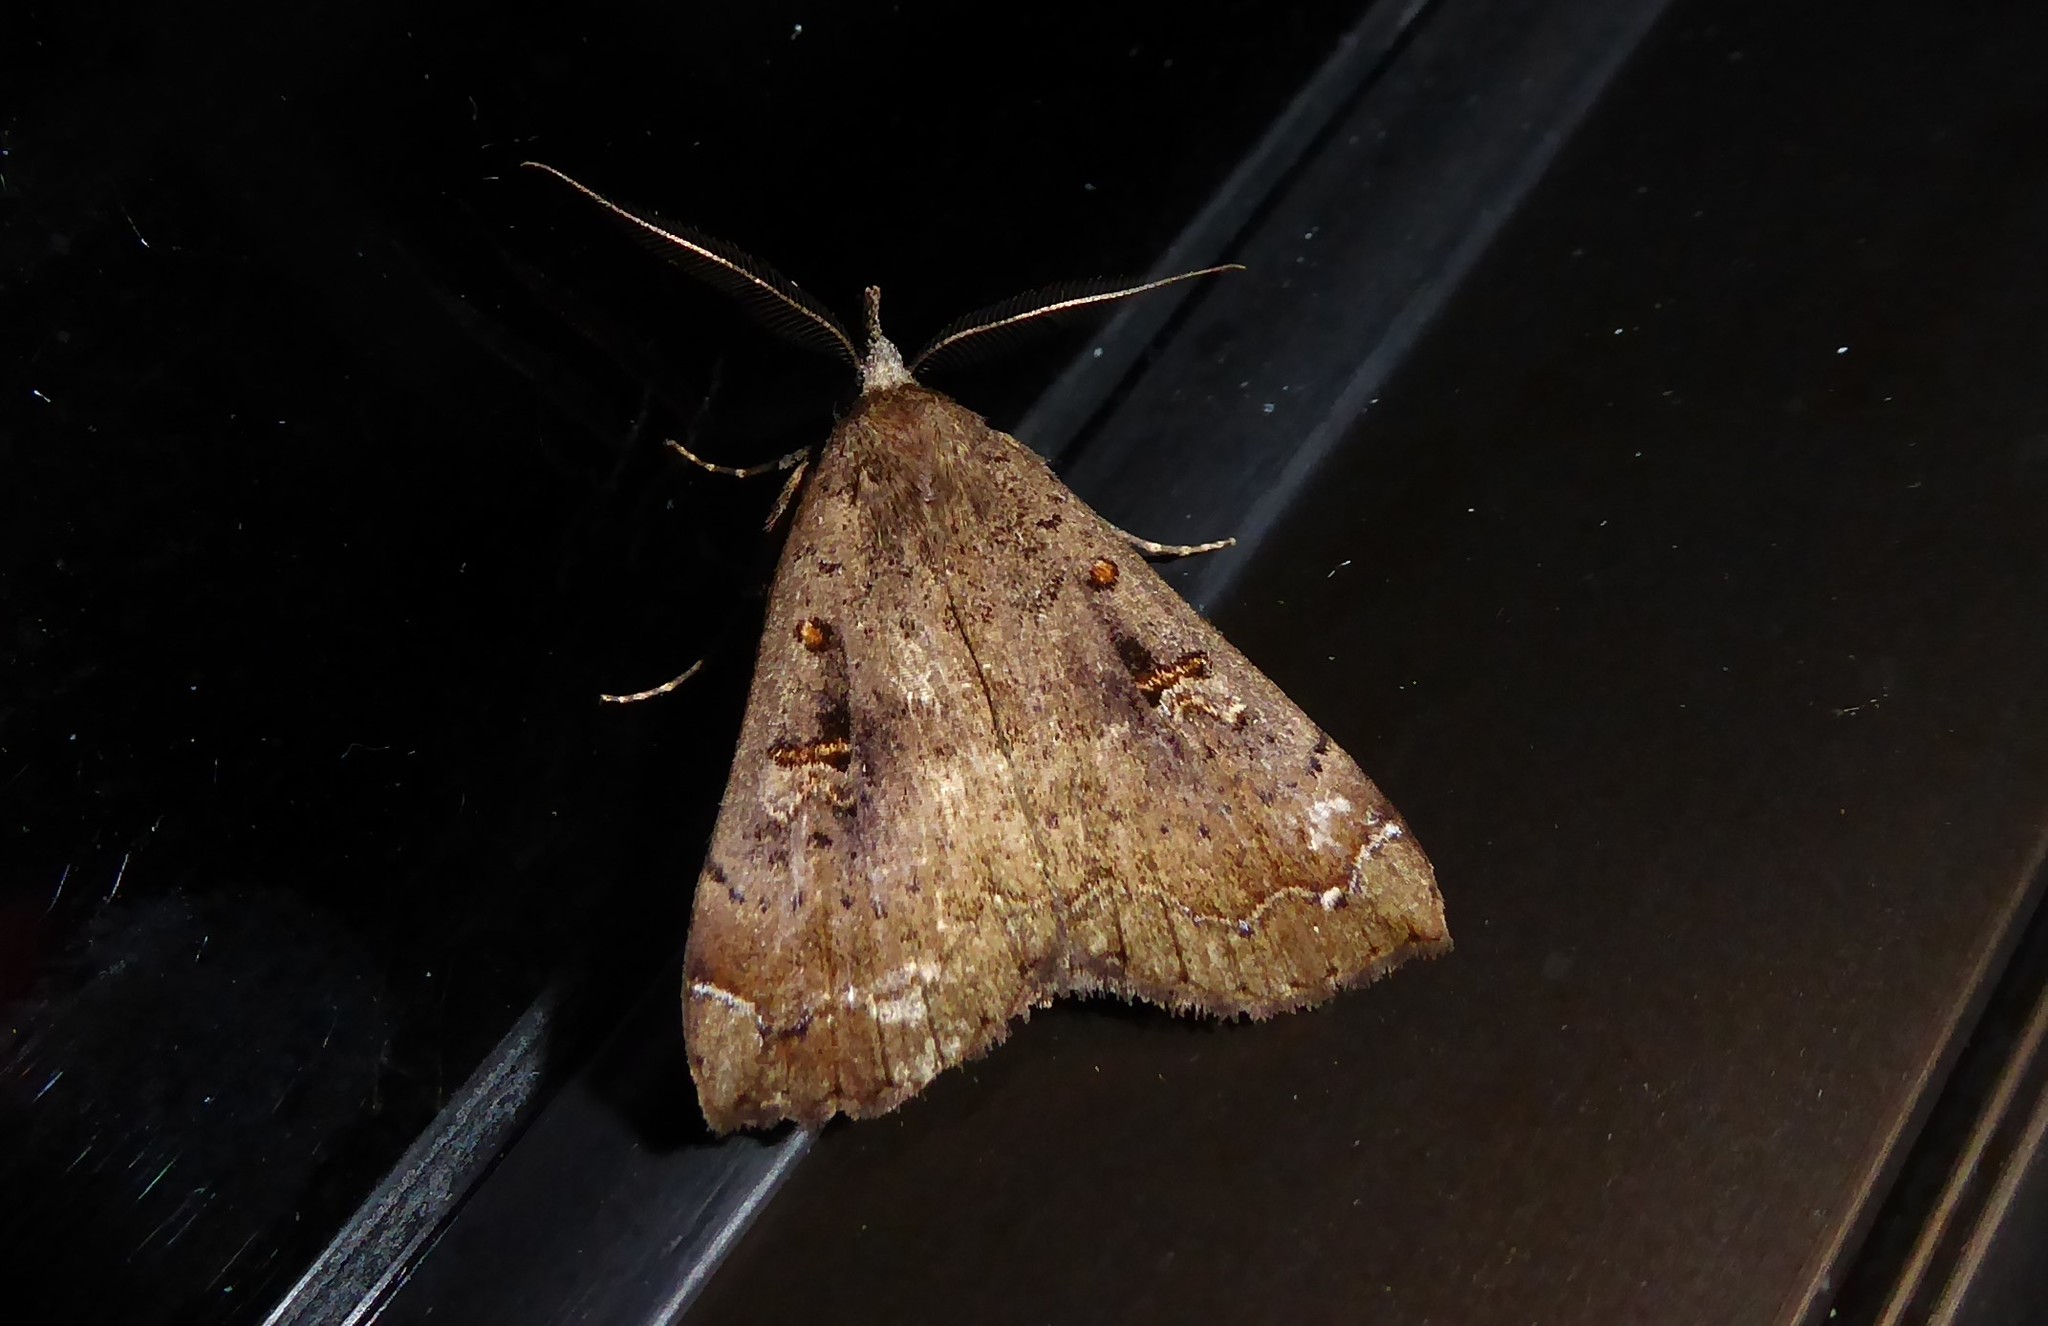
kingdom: Animalia
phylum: Arthropoda
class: Insecta
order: Lepidoptera
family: Erebidae
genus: Rhapsa
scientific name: Rhapsa scotosialis
